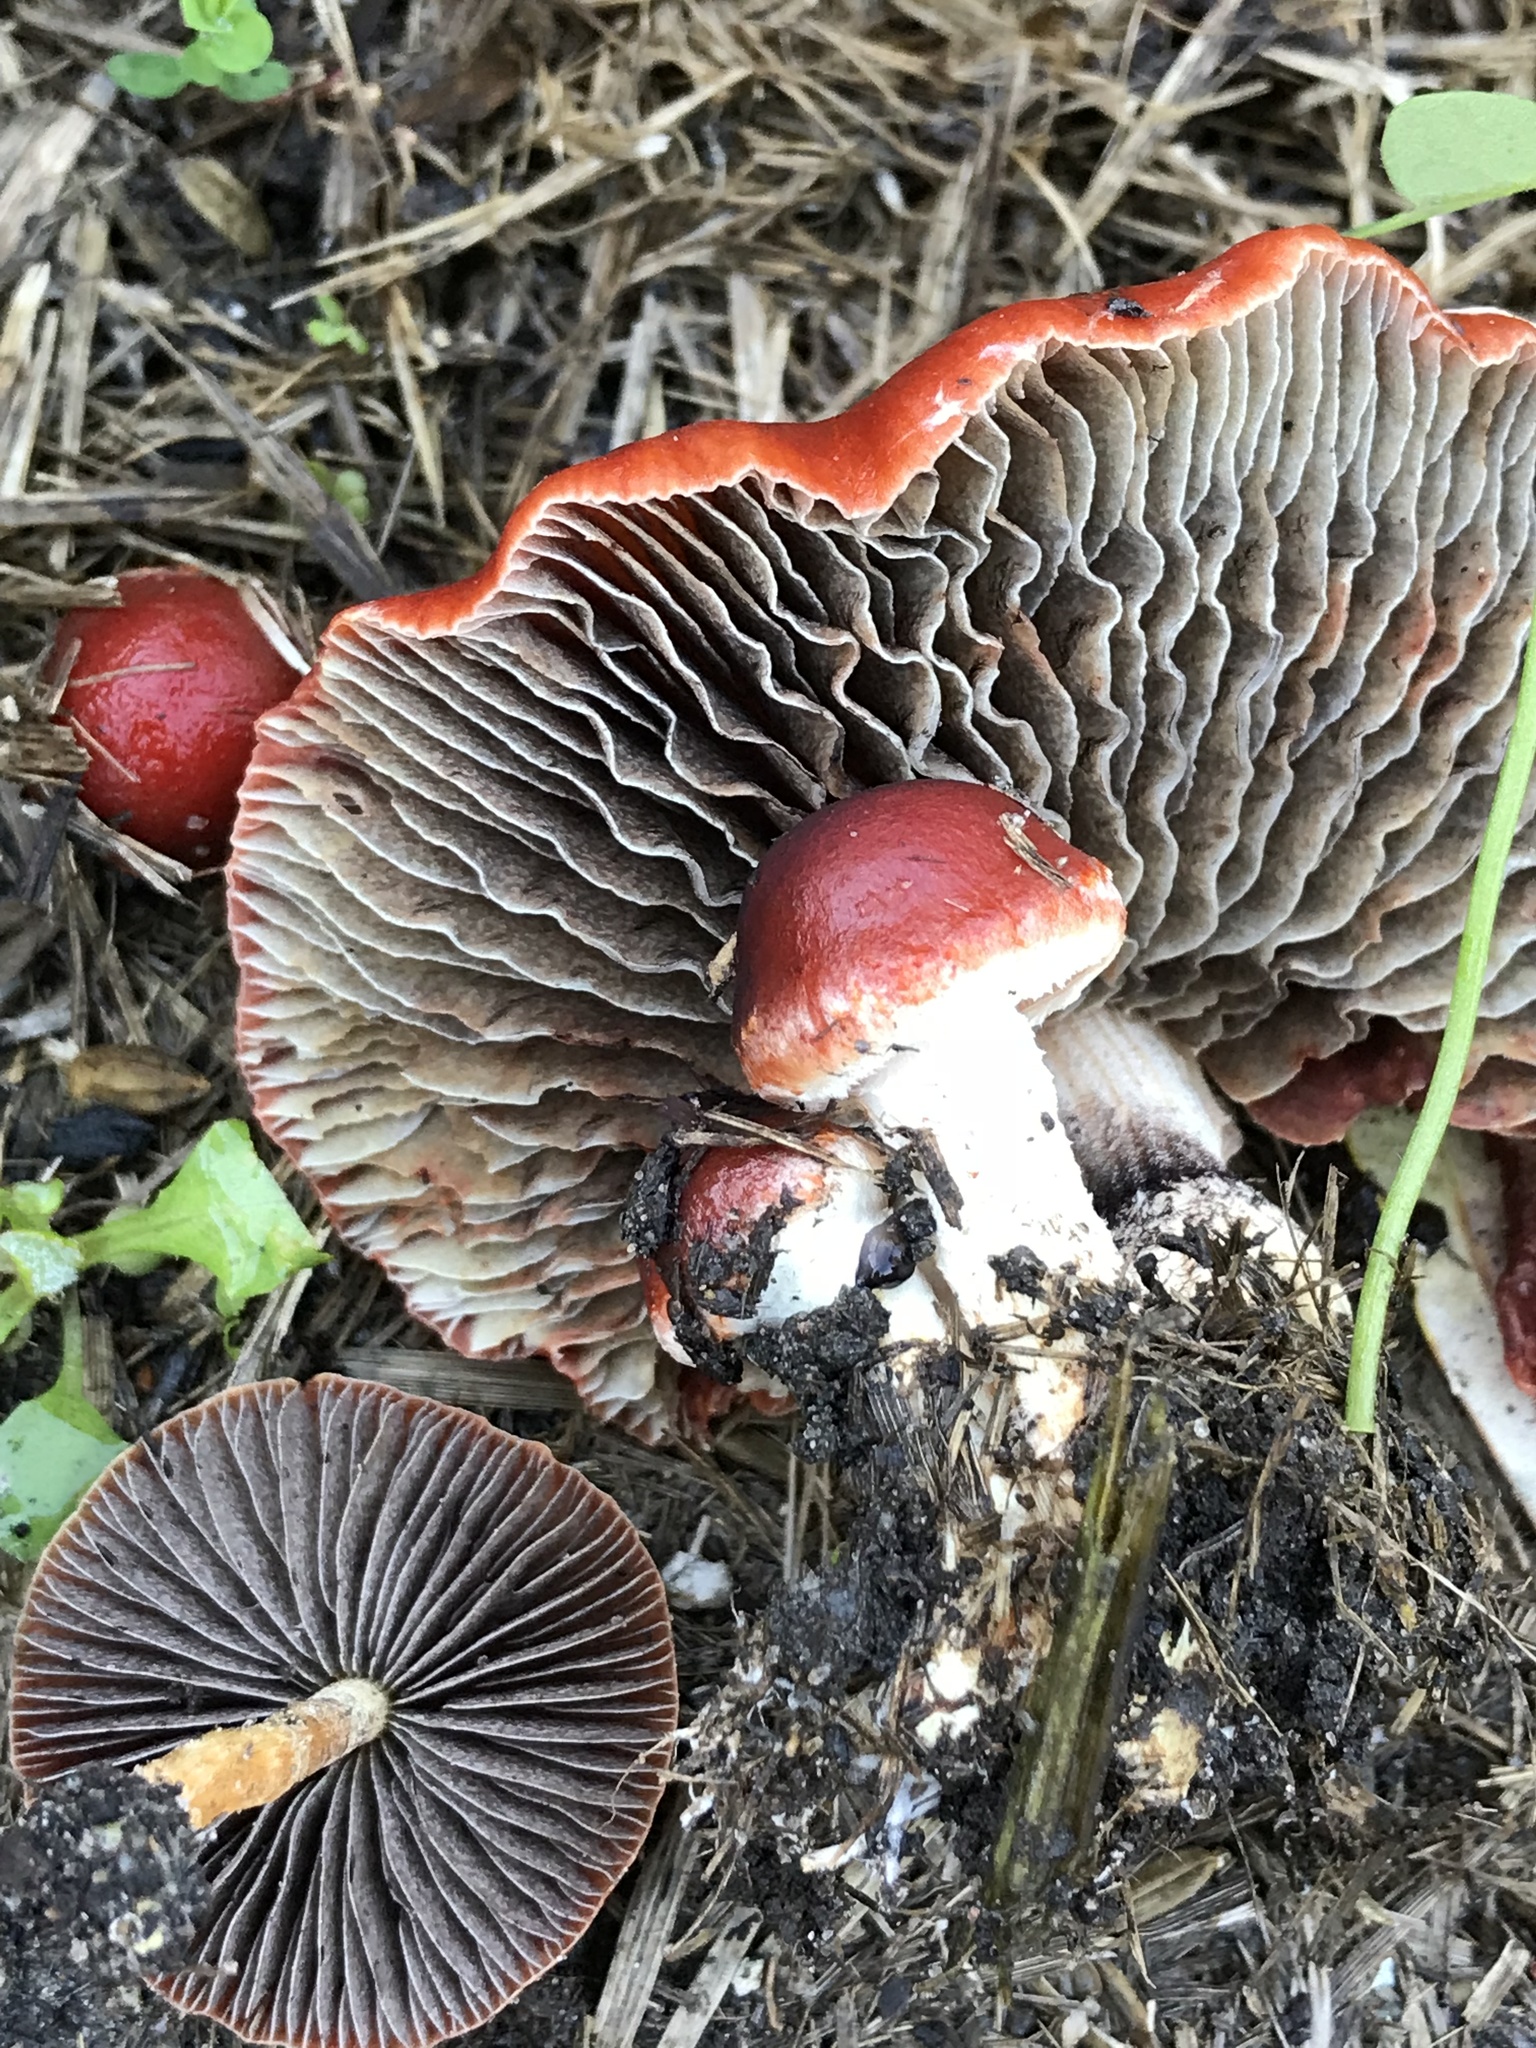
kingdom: Fungi
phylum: Basidiomycota
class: Agaricomycetes
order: Agaricales
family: Strophariaceae
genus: Leratiomyces
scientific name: Leratiomyces ceres
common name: Redlead roundhead
